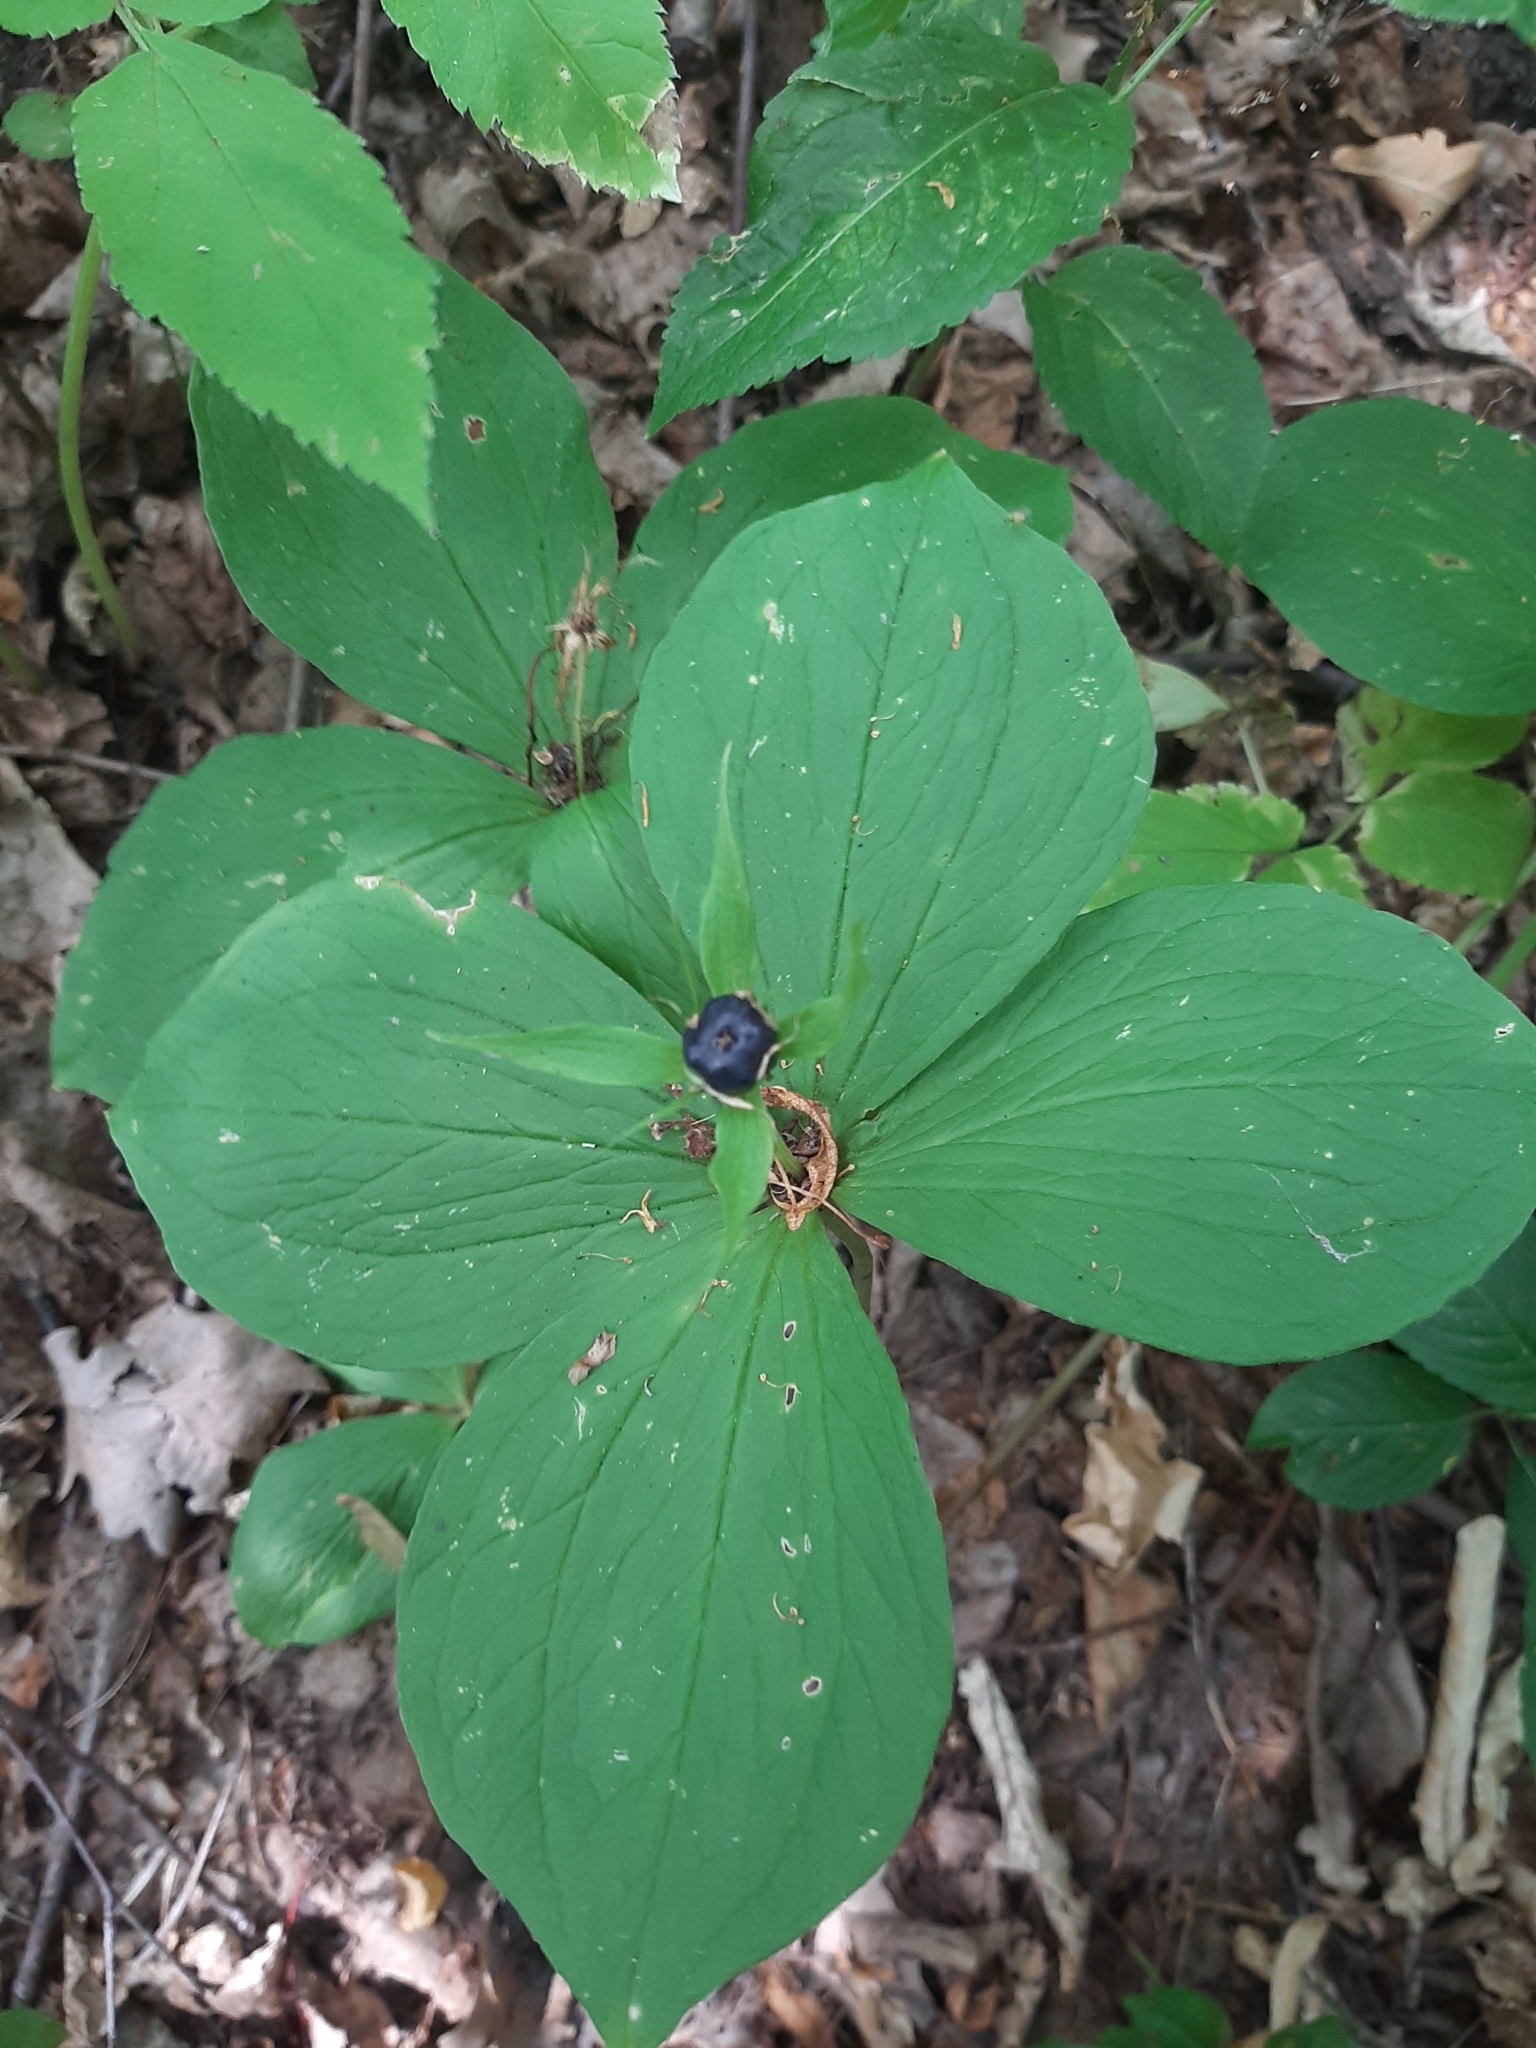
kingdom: Plantae
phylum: Tracheophyta
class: Liliopsida
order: Liliales
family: Melanthiaceae
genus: Paris
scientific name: Paris quadrifolia
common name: Herb-paris
